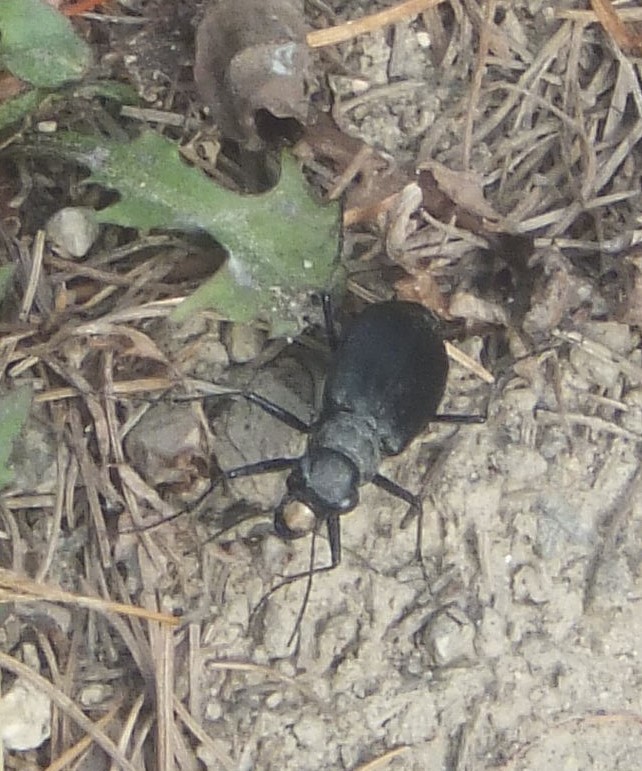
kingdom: Animalia
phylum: Arthropoda
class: Insecta
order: Coleoptera
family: Carabidae
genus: Cicindela
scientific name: Cicindela longilabris
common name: Boreal long-lipped tiger beetle
